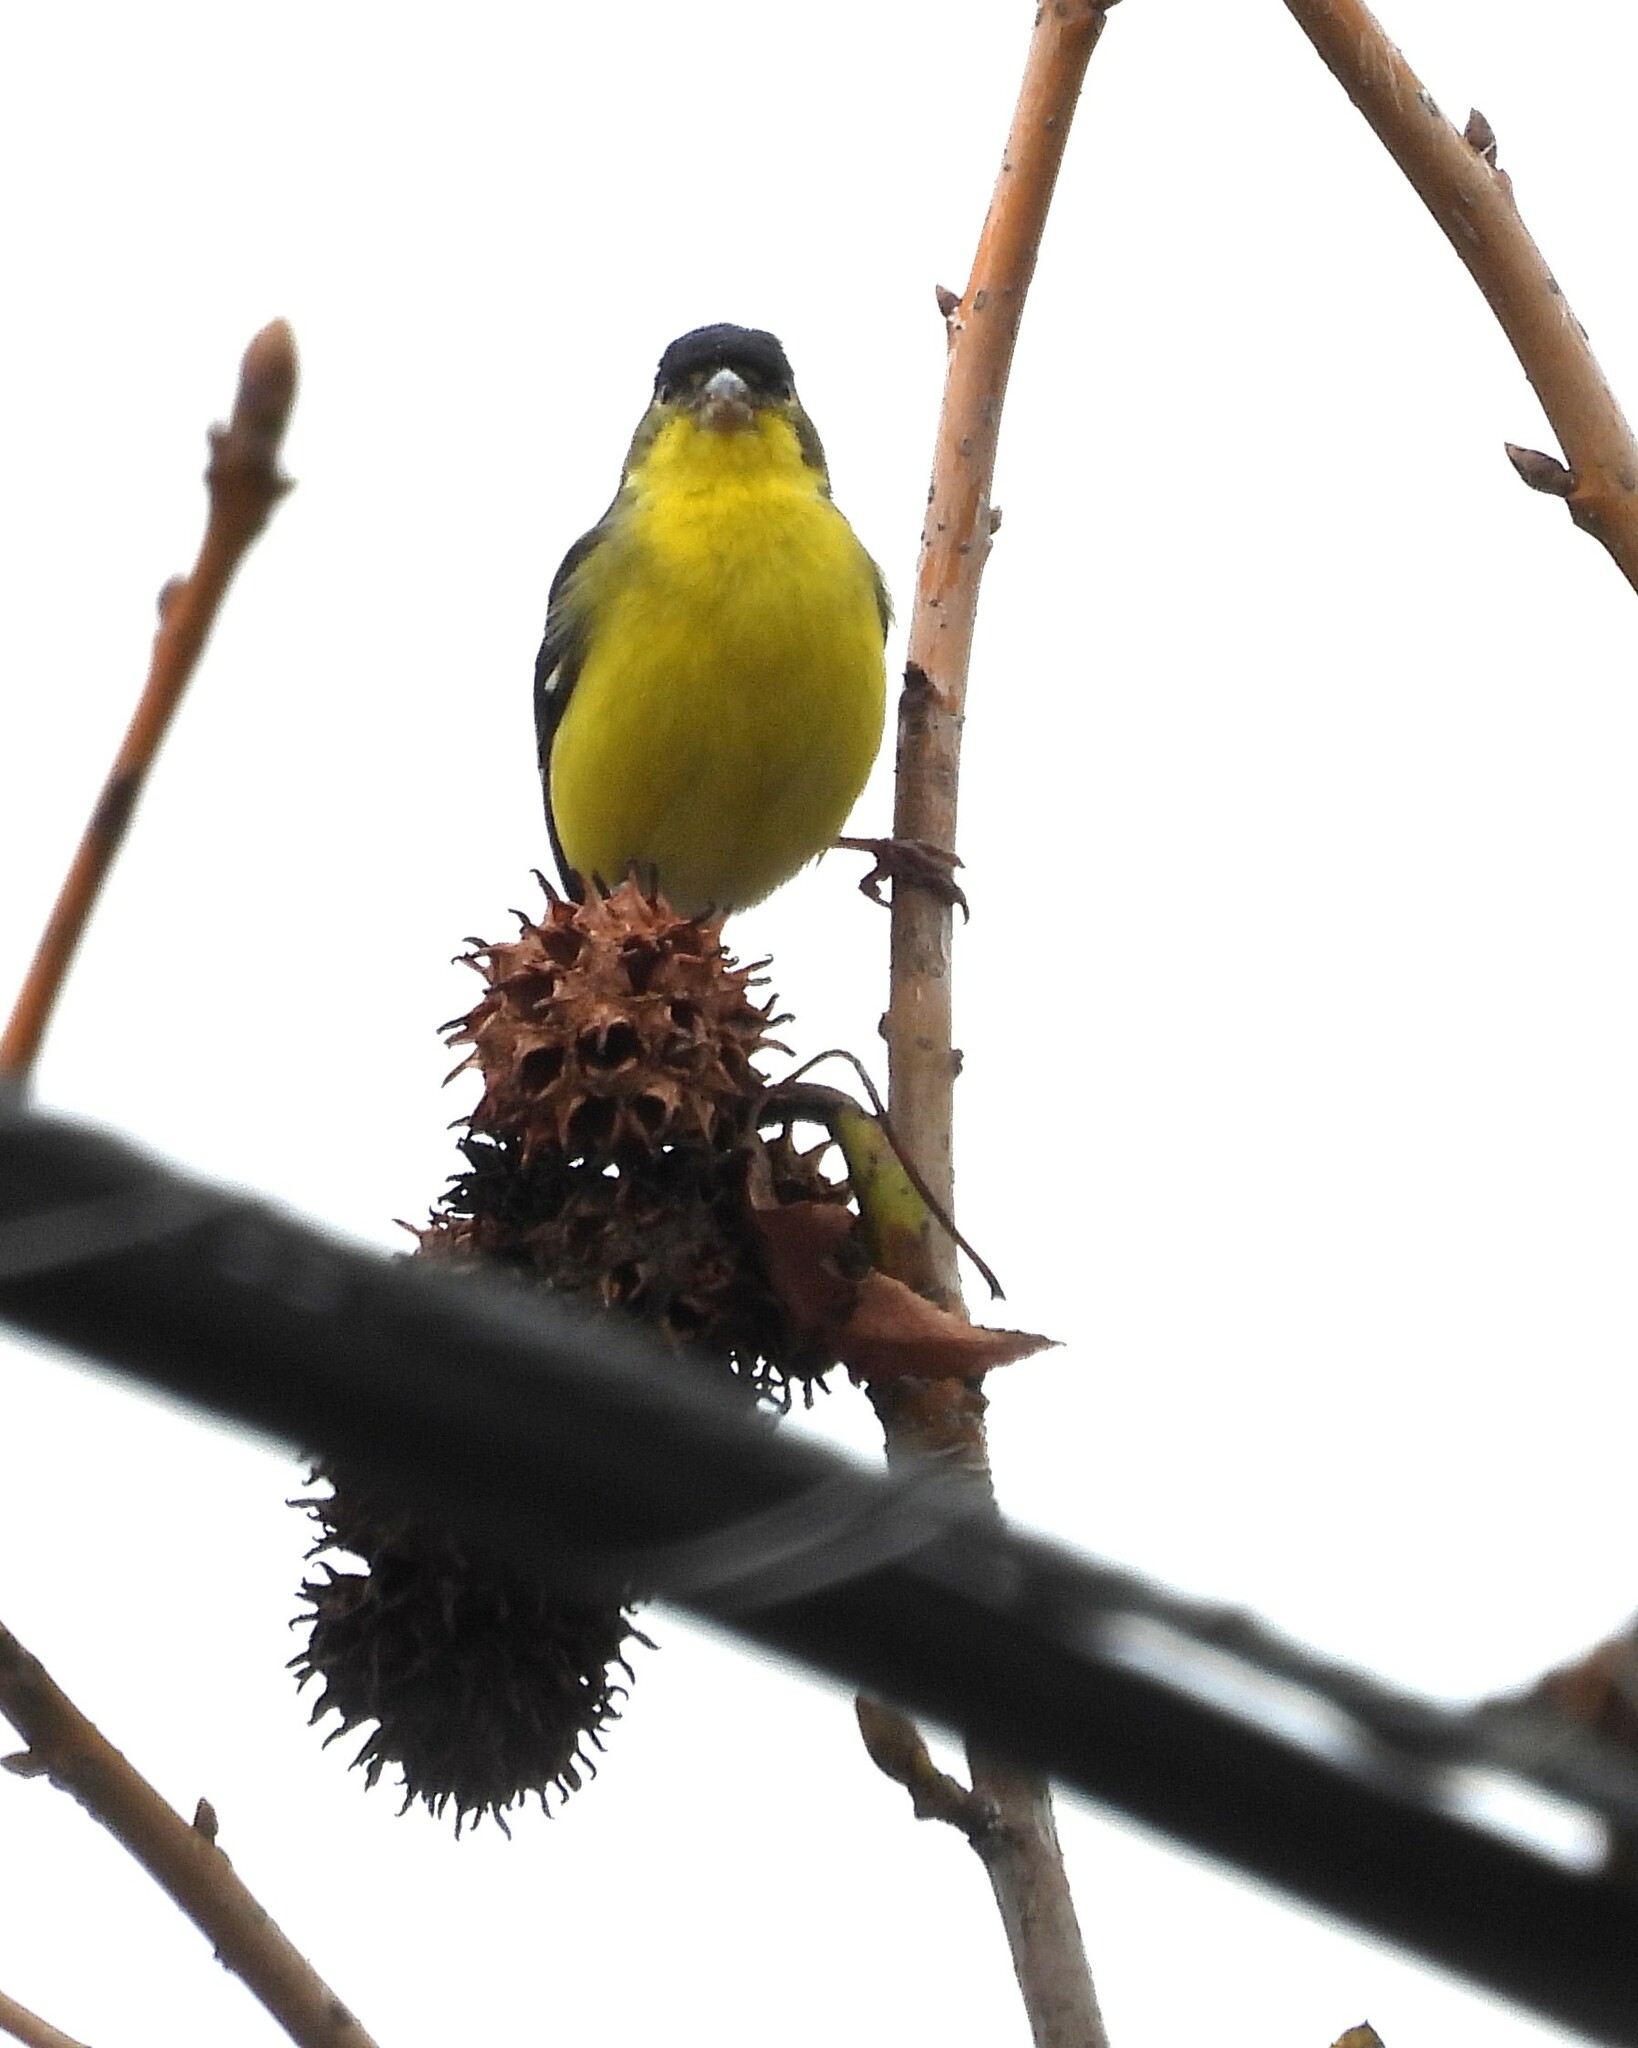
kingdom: Animalia
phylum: Chordata
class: Aves
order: Passeriformes
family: Fringillidae
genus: Spinus
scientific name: Spinus psaltria
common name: Lesser goldfinch
